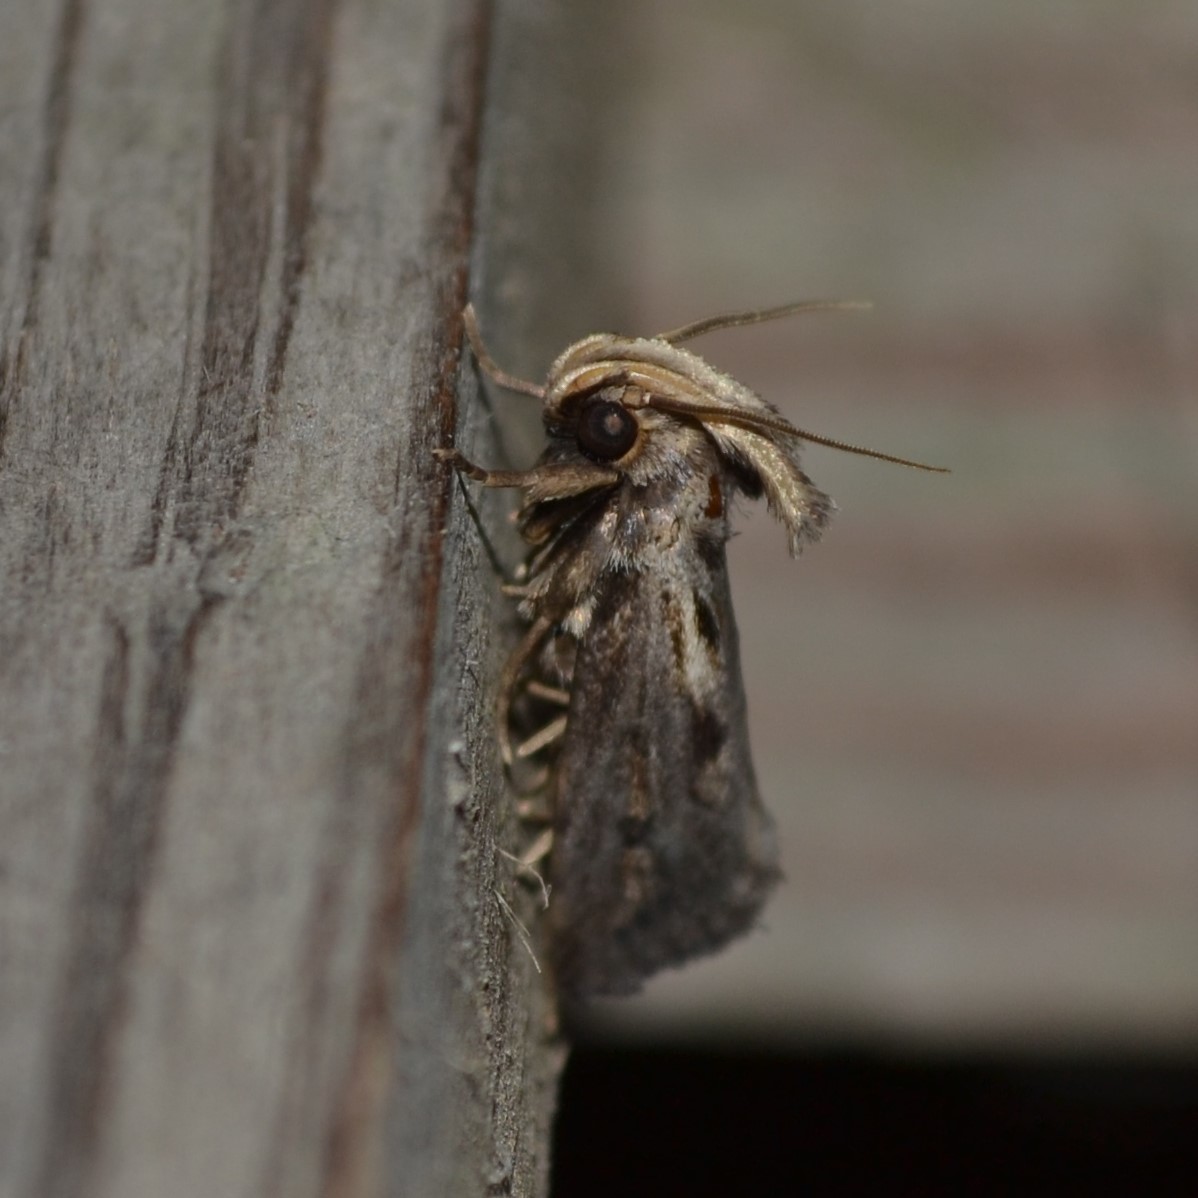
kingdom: Animalia
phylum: Arthropoda
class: Insecta
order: Lepidoptera
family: Tineidae
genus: Acrolophus
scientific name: Acrolophus popeanella
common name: Clemens' grass tubeworm moth
